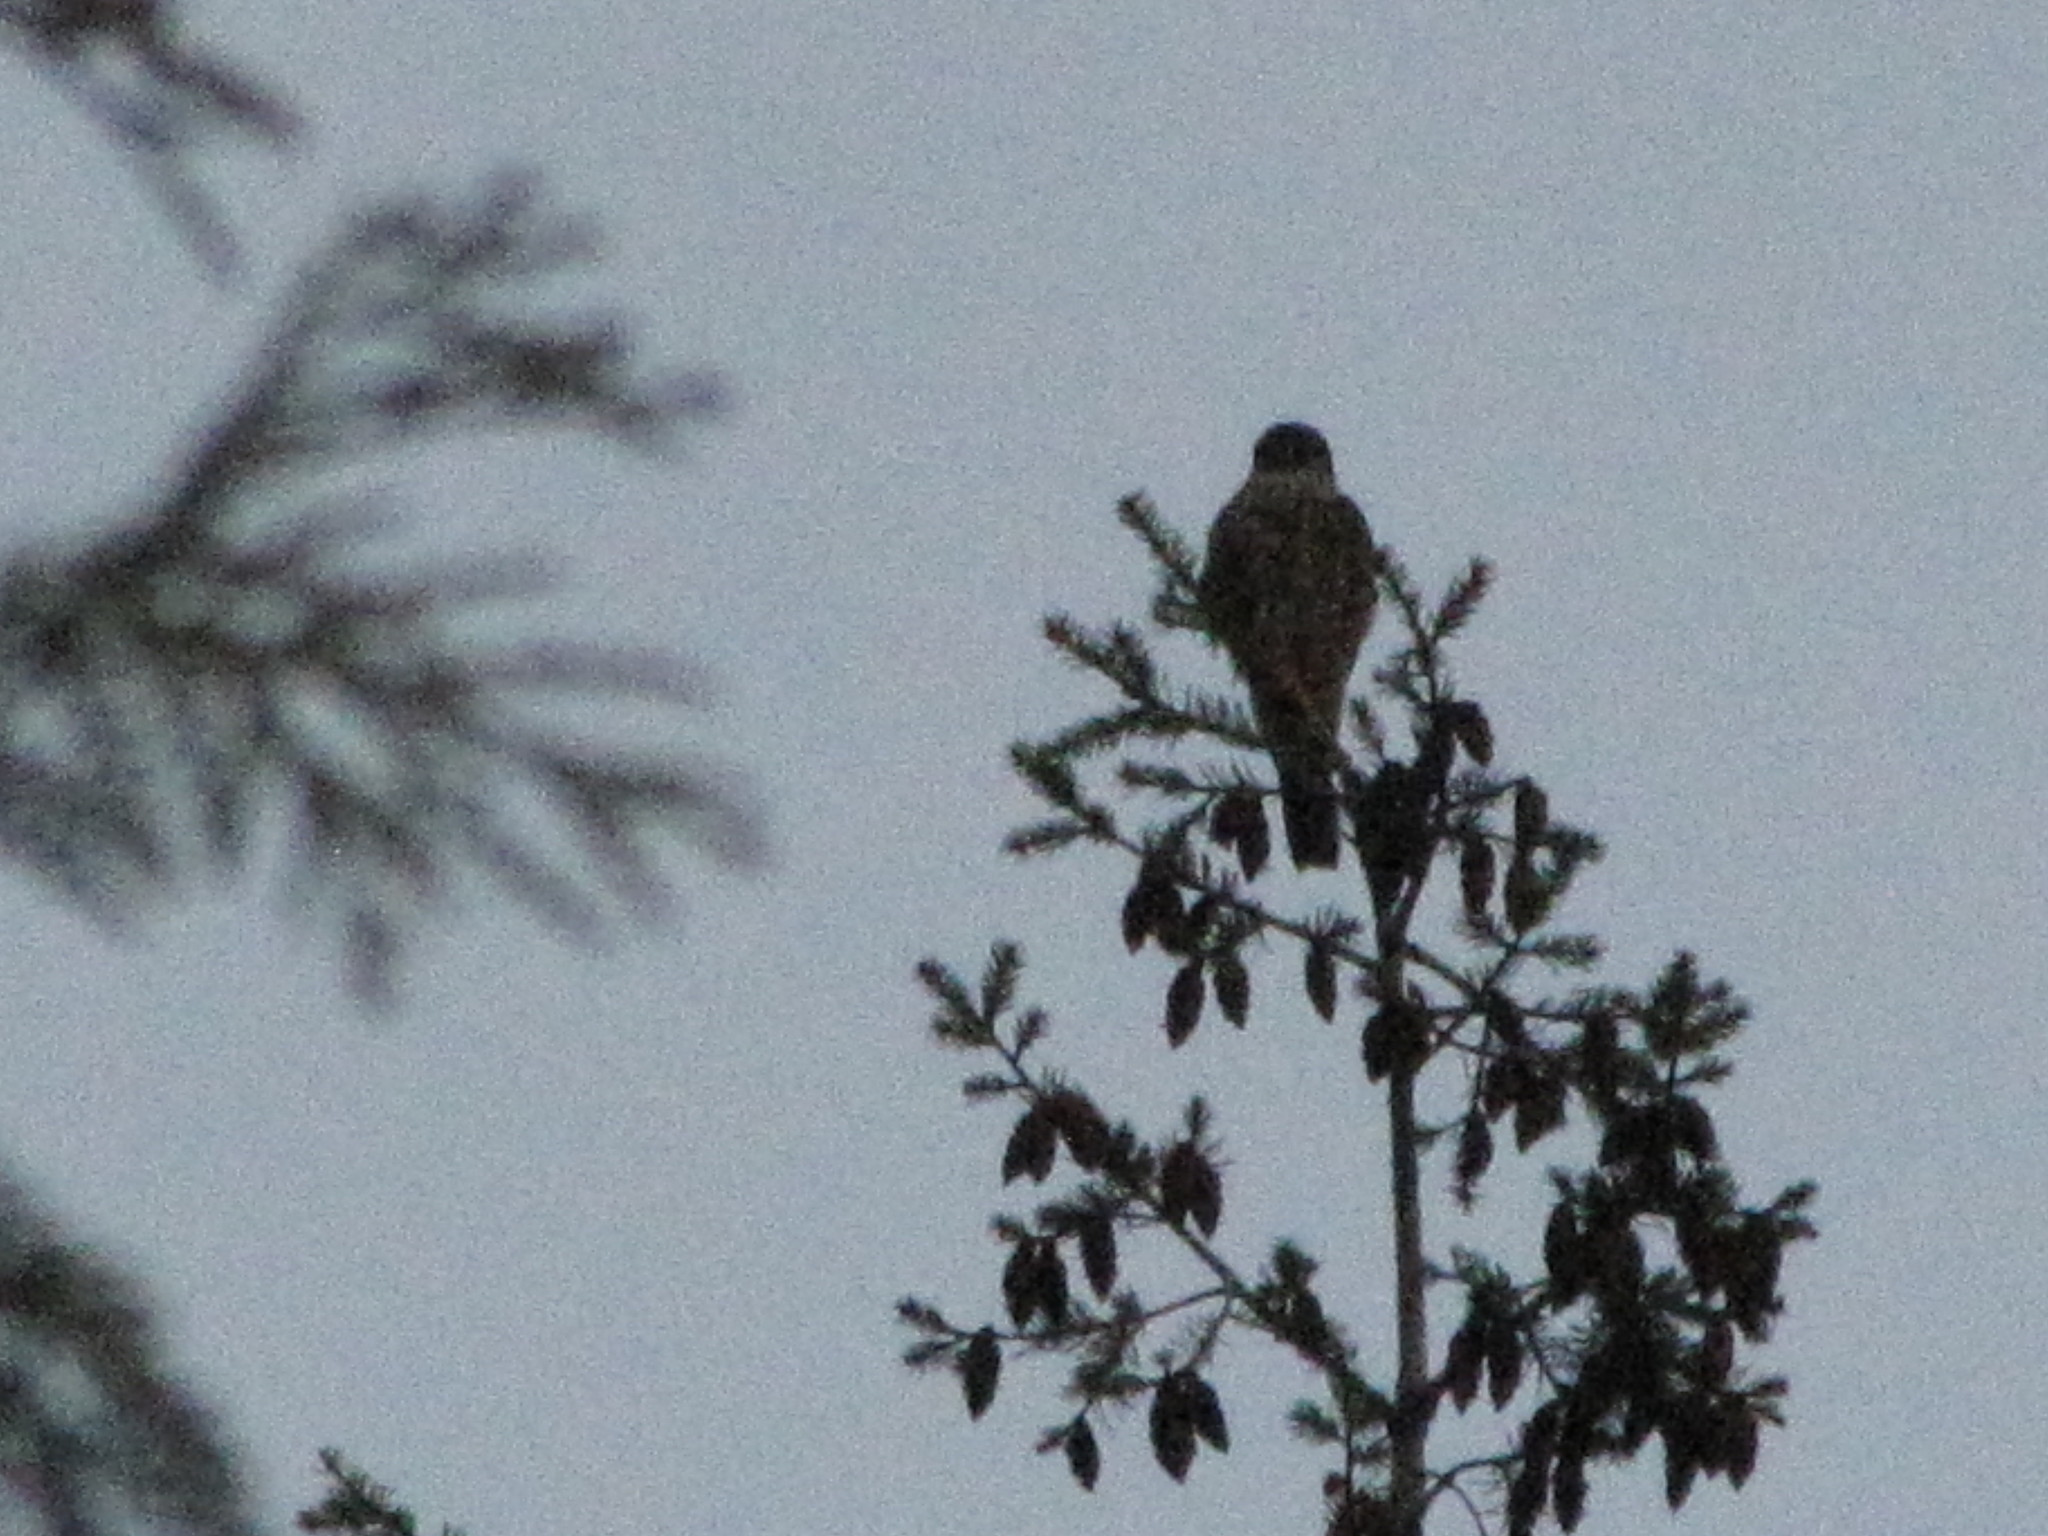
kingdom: Animalia
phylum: Chordata
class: Aves
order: Falconiformes
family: Falconidae
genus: Falco
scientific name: Falco columbarius
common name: Merlin
